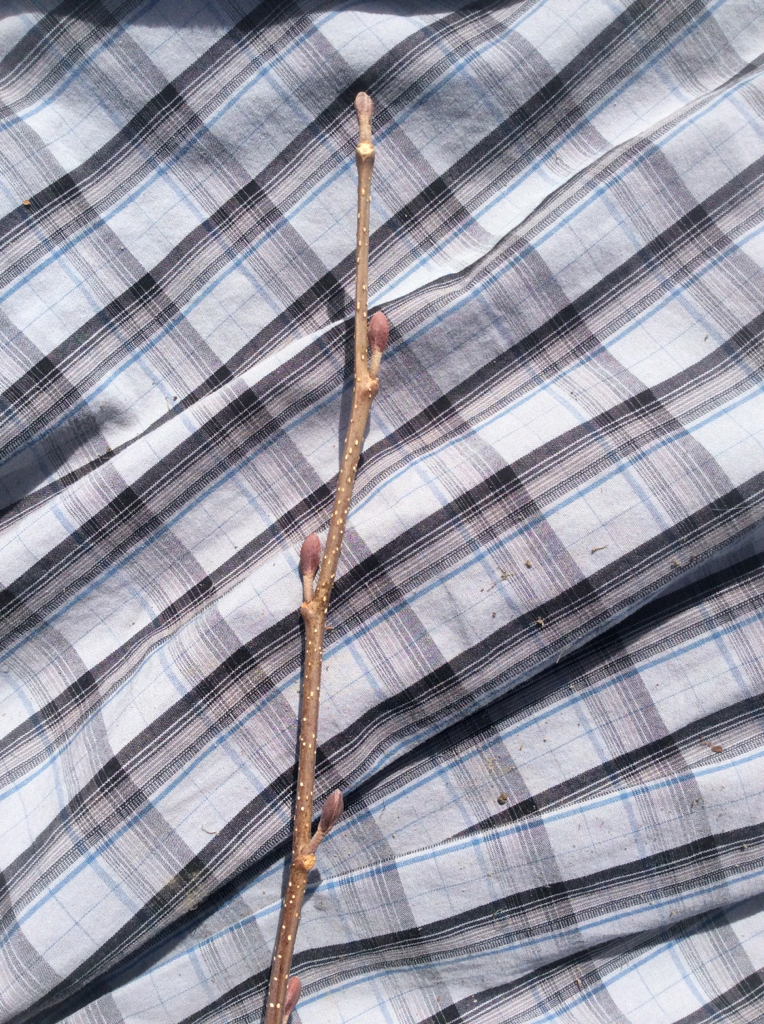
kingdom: Plantae
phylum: Tracheophyta
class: Magnoliopsida
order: Fagales
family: Betulaceae
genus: Alnus
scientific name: Alnus glutinosa
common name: Black alder
